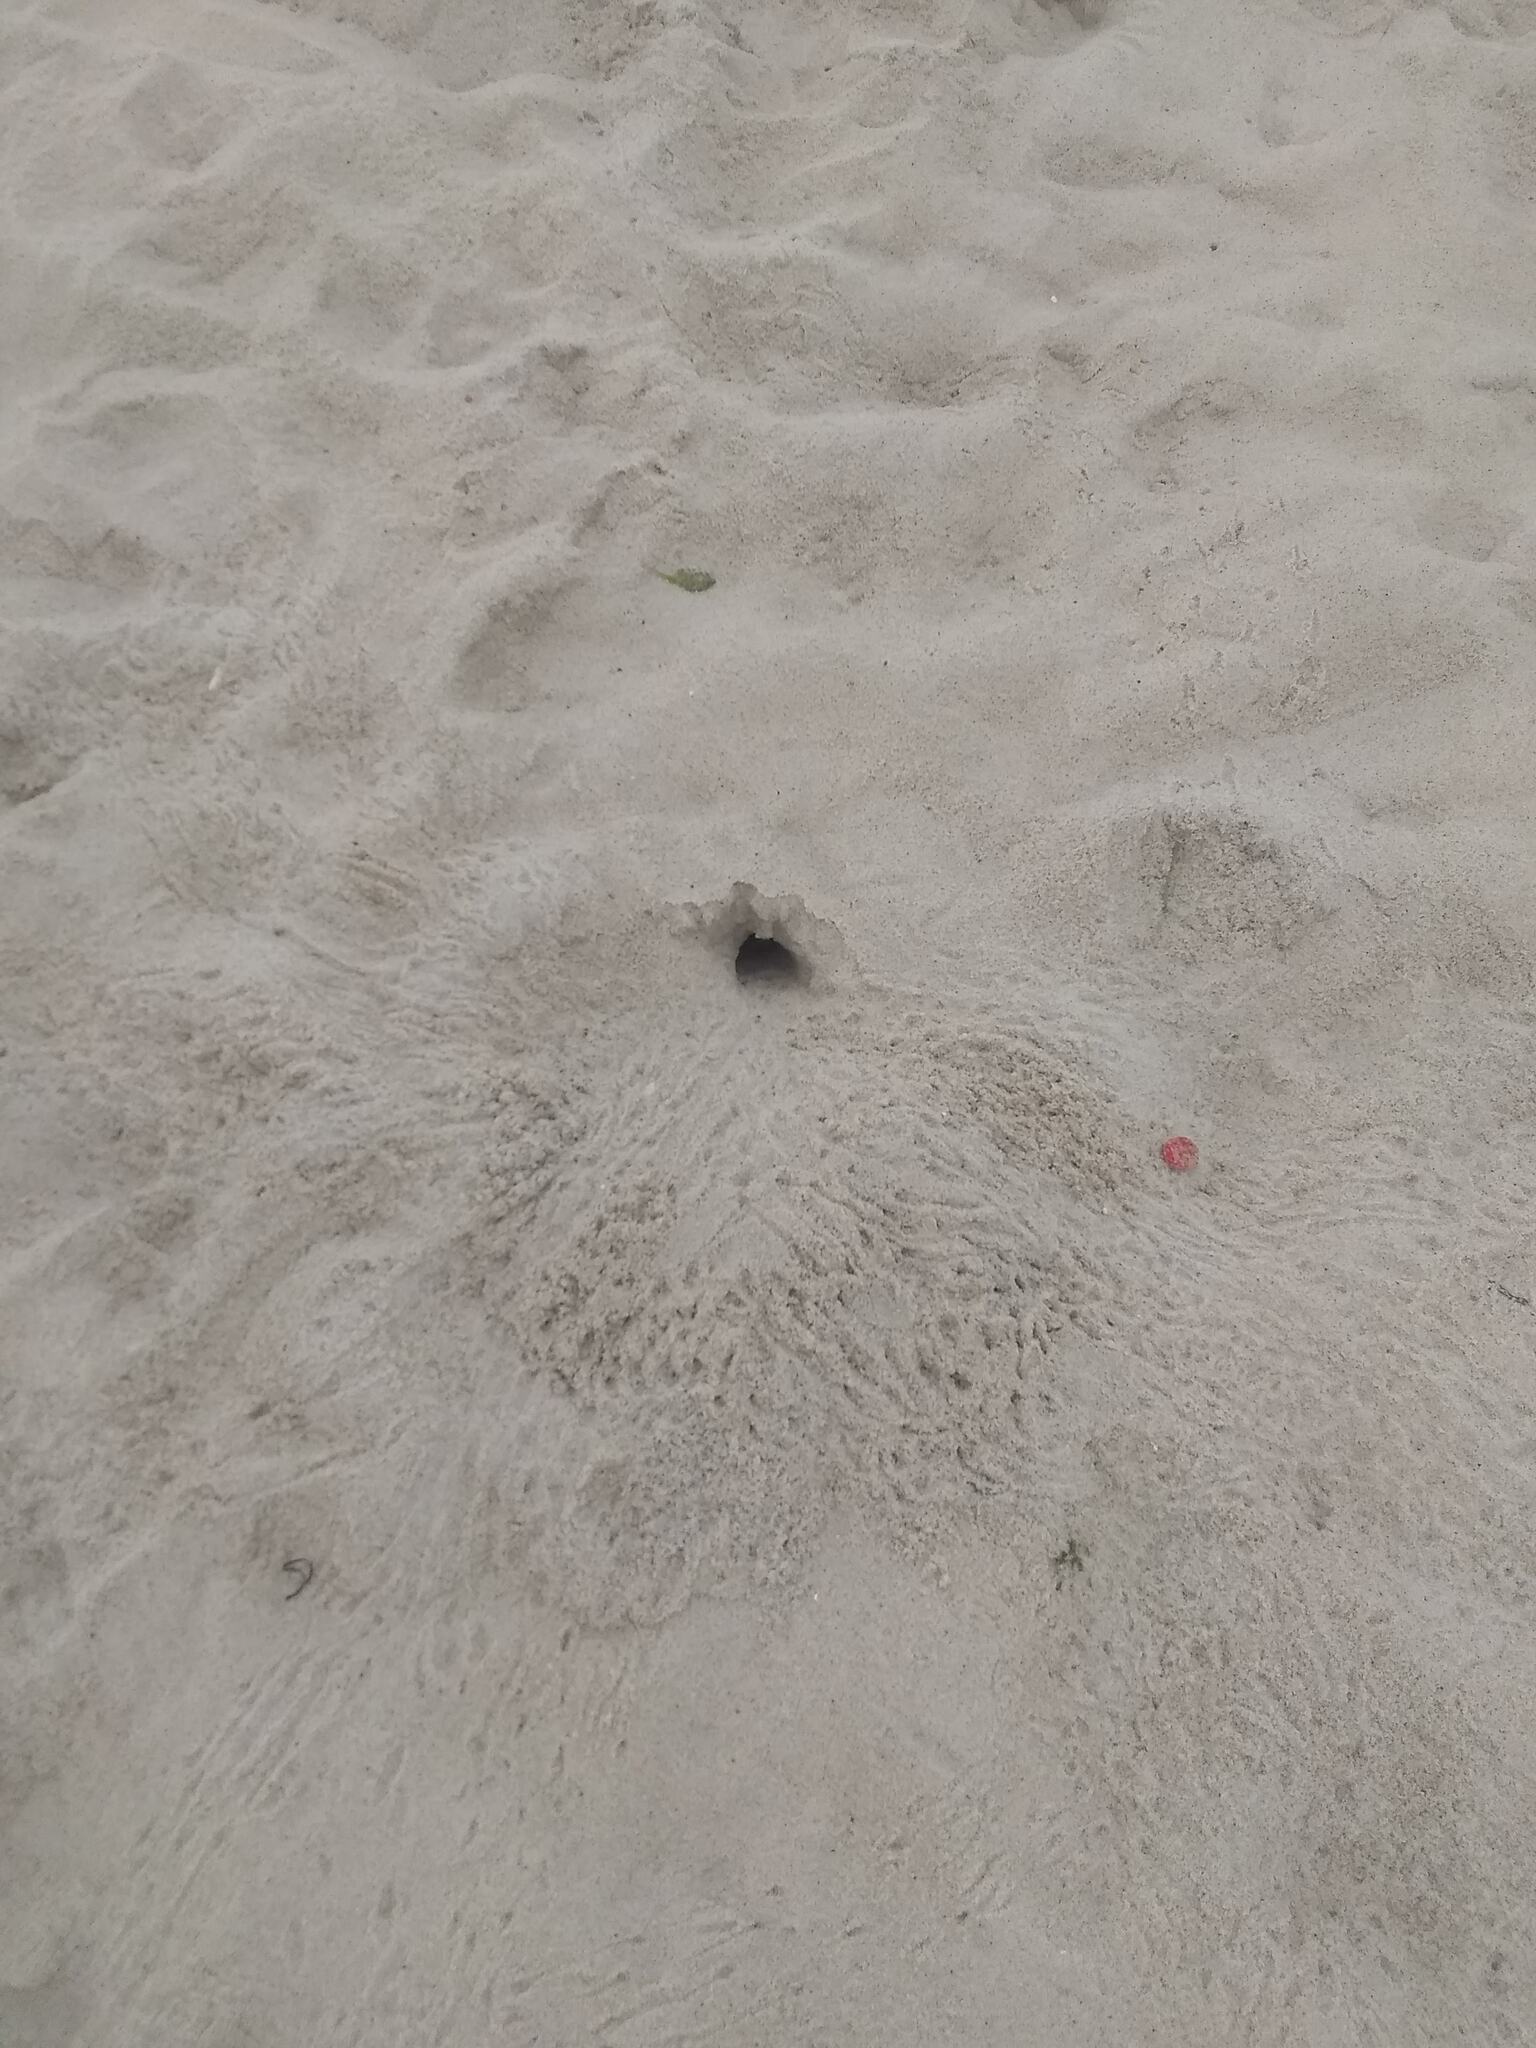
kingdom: Animalia
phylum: Arthropoda
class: Malacostraca
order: Decapoda
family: Ocypodidae
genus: Ocypode
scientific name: Ocypode quadrata
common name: Ghost crab
